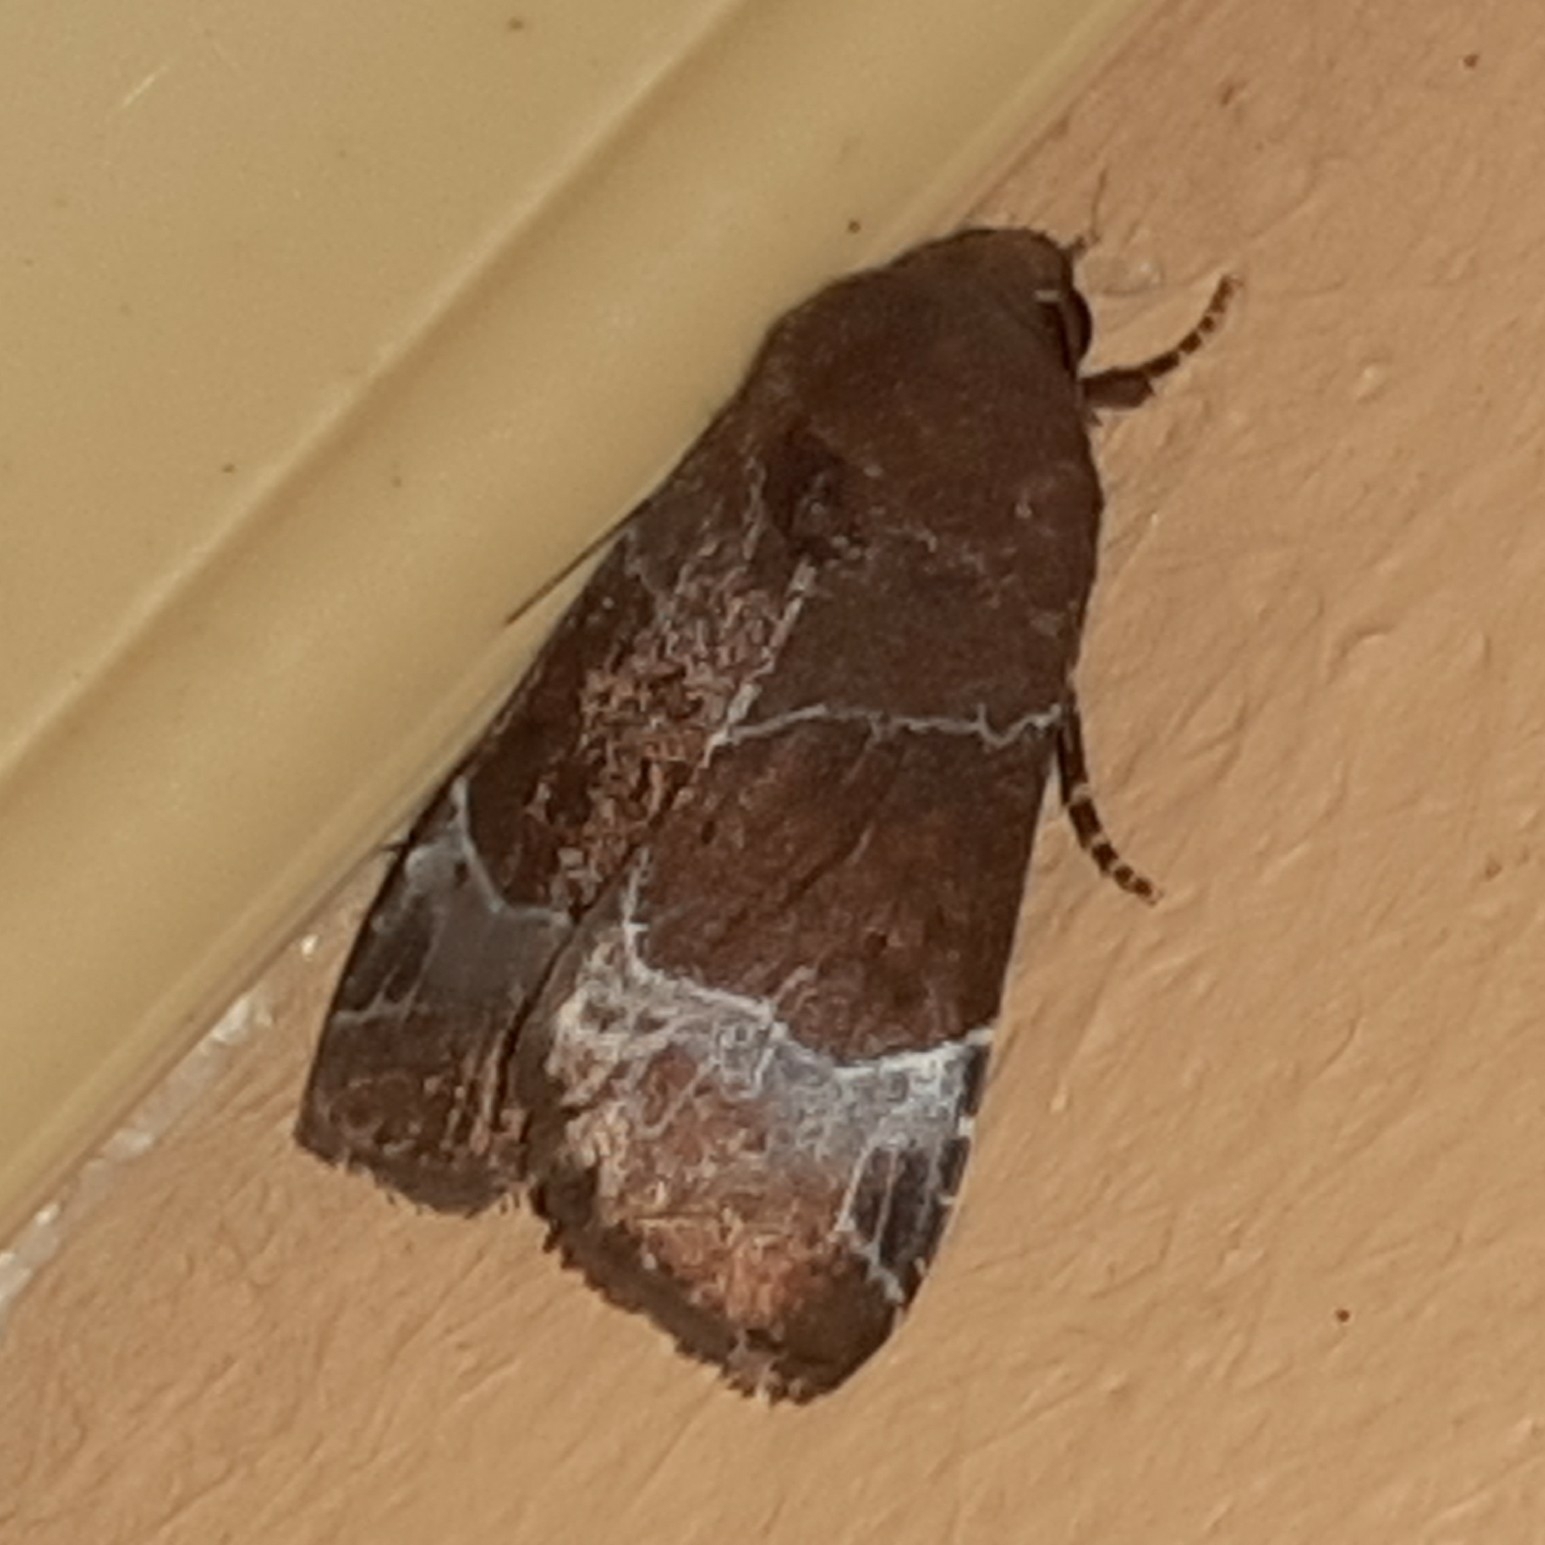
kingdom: Animalia
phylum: Arthropoda
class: Insecta
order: Lepidoptera
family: Noctuidae
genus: Hampsonodes
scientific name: Hampsonodes mastoides
